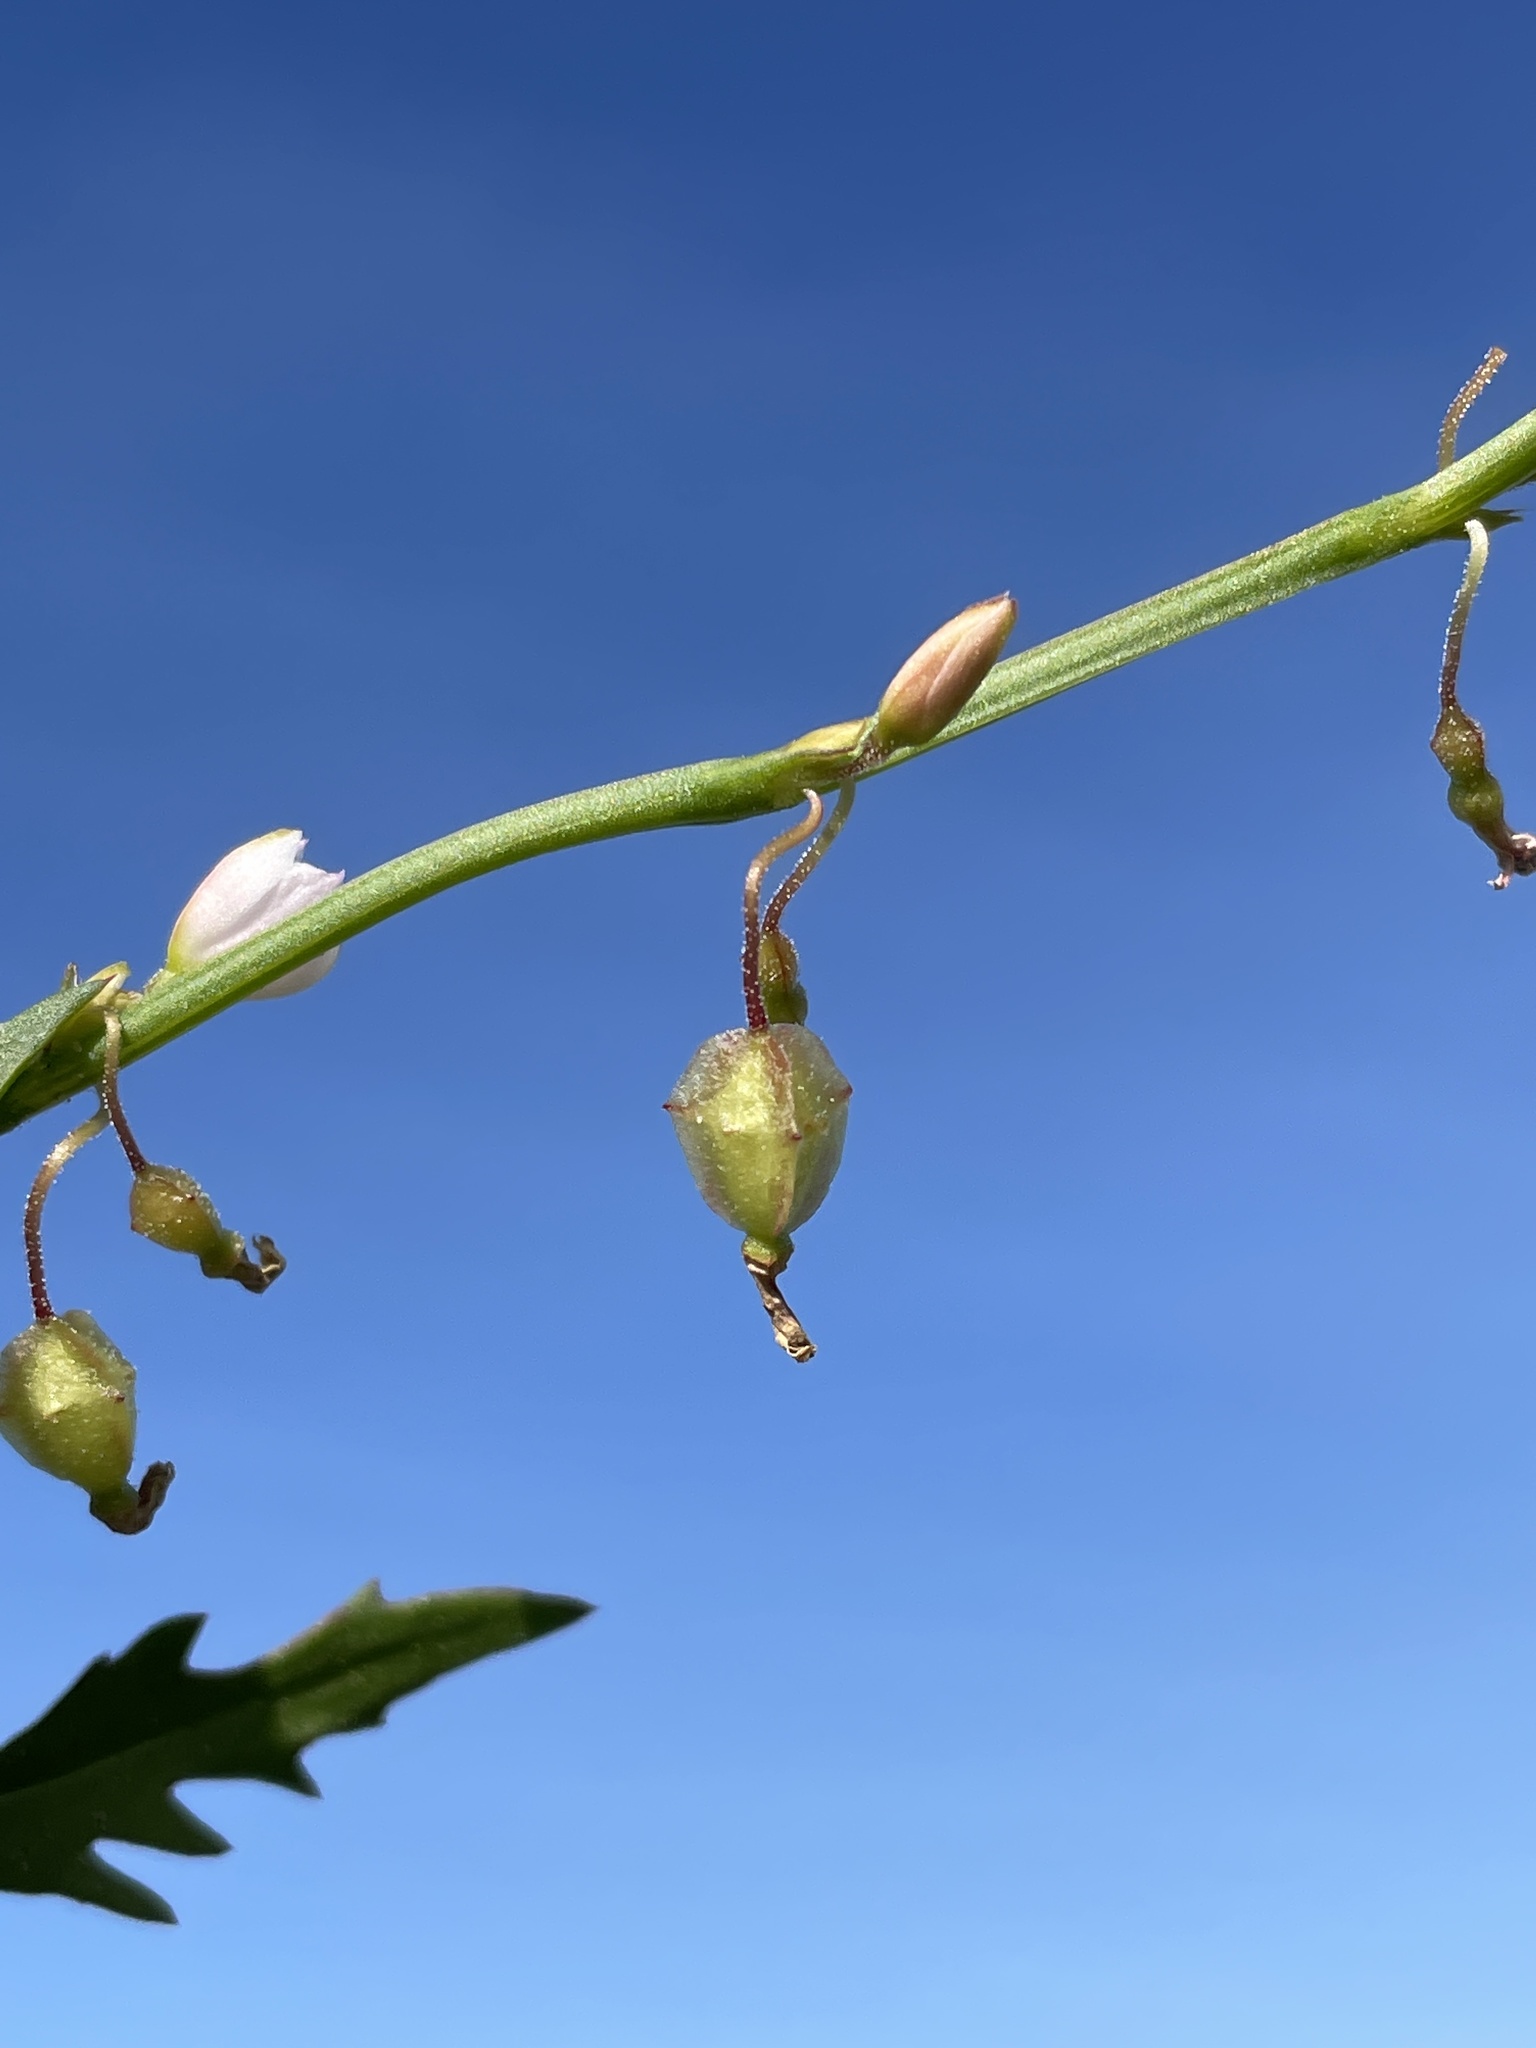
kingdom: Plantae
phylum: Tracheophyta
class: Magnoliopsida
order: Caryophyllales
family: Polygonaceae
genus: Oxygonum
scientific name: Oxygonum alatum
